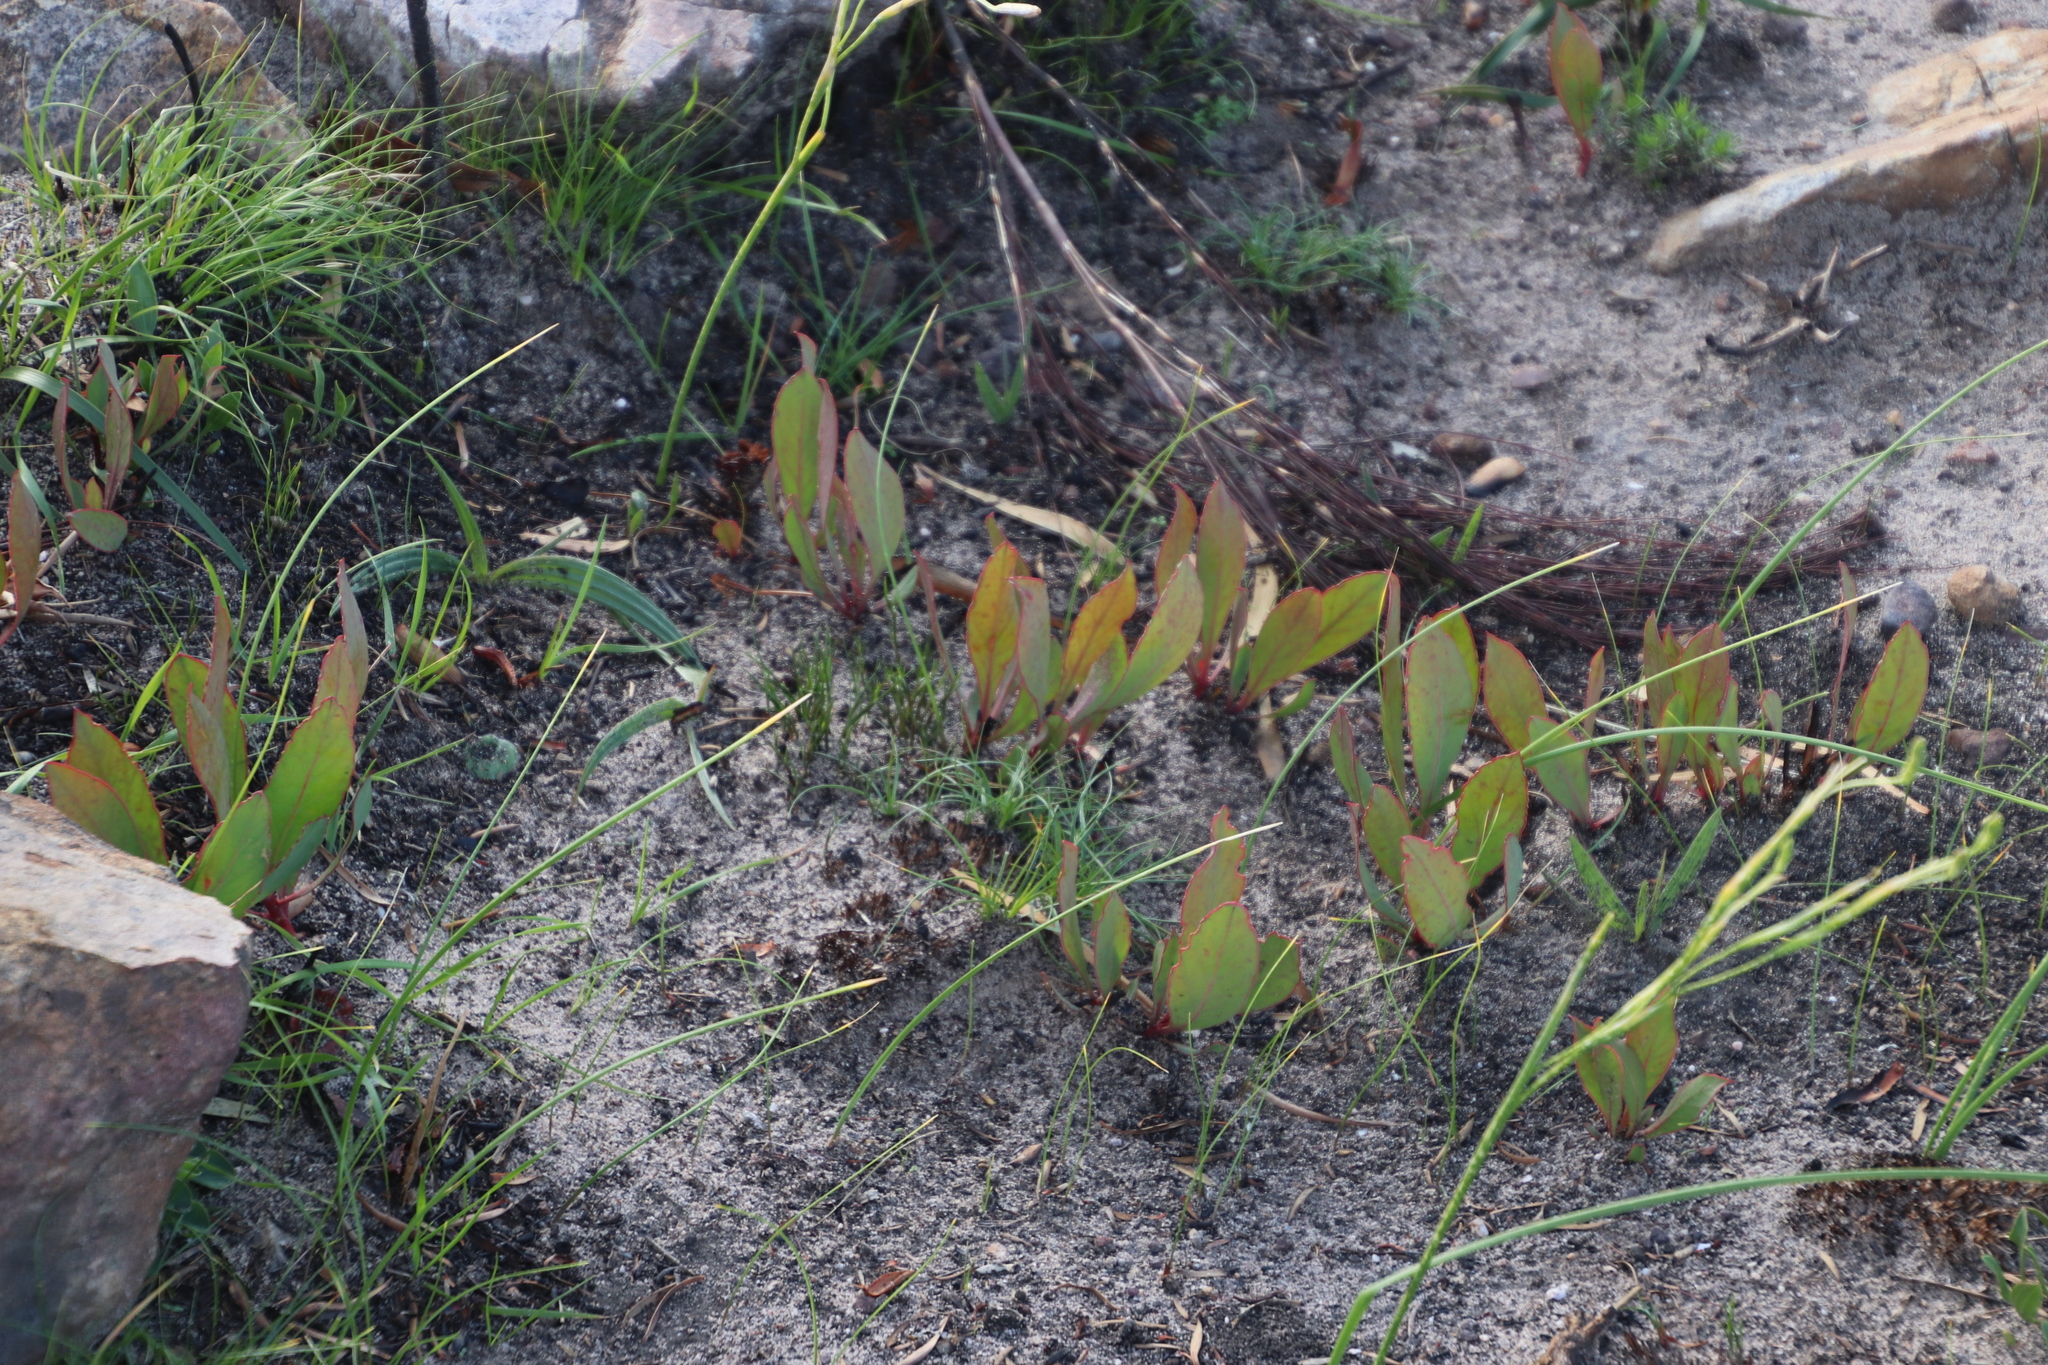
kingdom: Plantae
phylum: Tracheophyta
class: Magnoliopsida
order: Proteales
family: Proteaceae
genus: Protea
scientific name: Protea acaulos
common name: Common ground sugarbush
